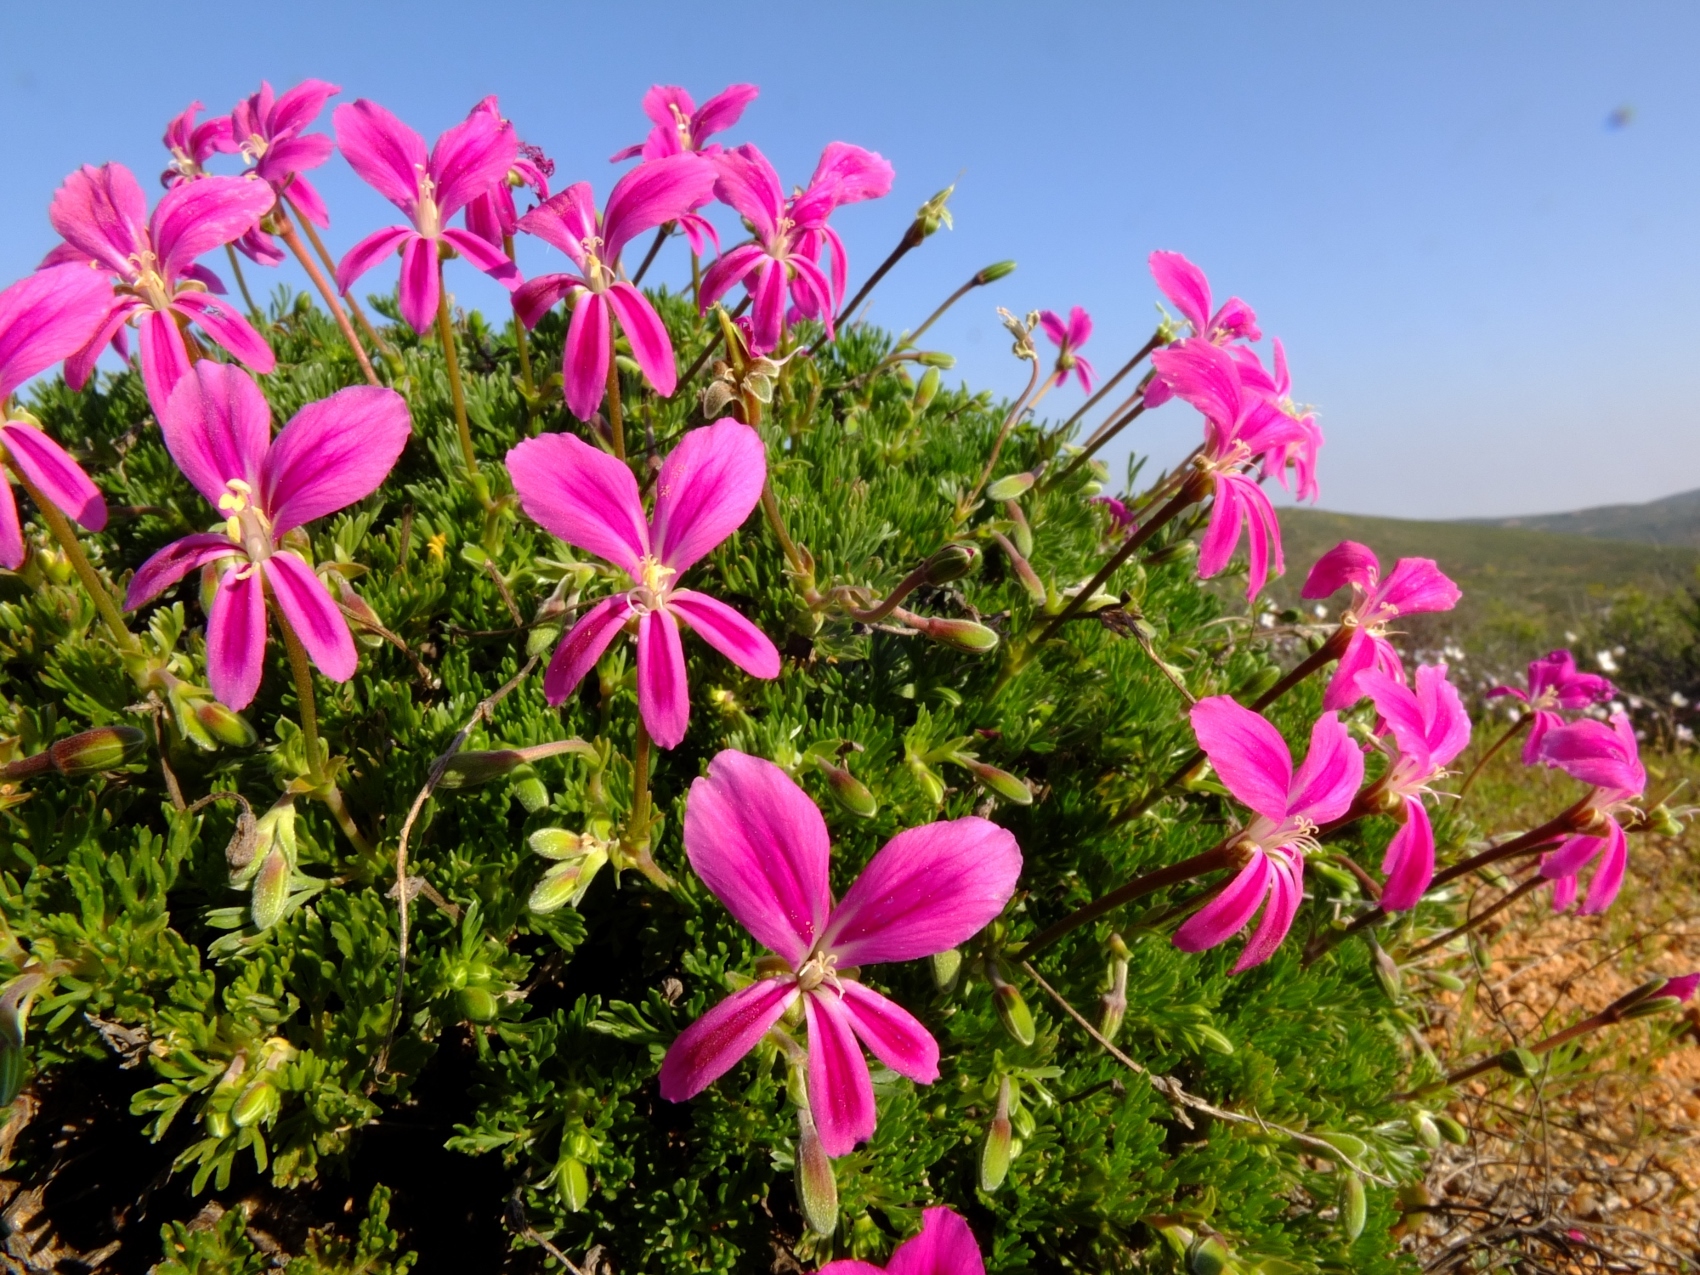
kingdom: Plantae
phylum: Tracheophyta
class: Magnoliopsida
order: Geraniales
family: Geraniaceae
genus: Pelargonium
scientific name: Pelargonium sericifolium
